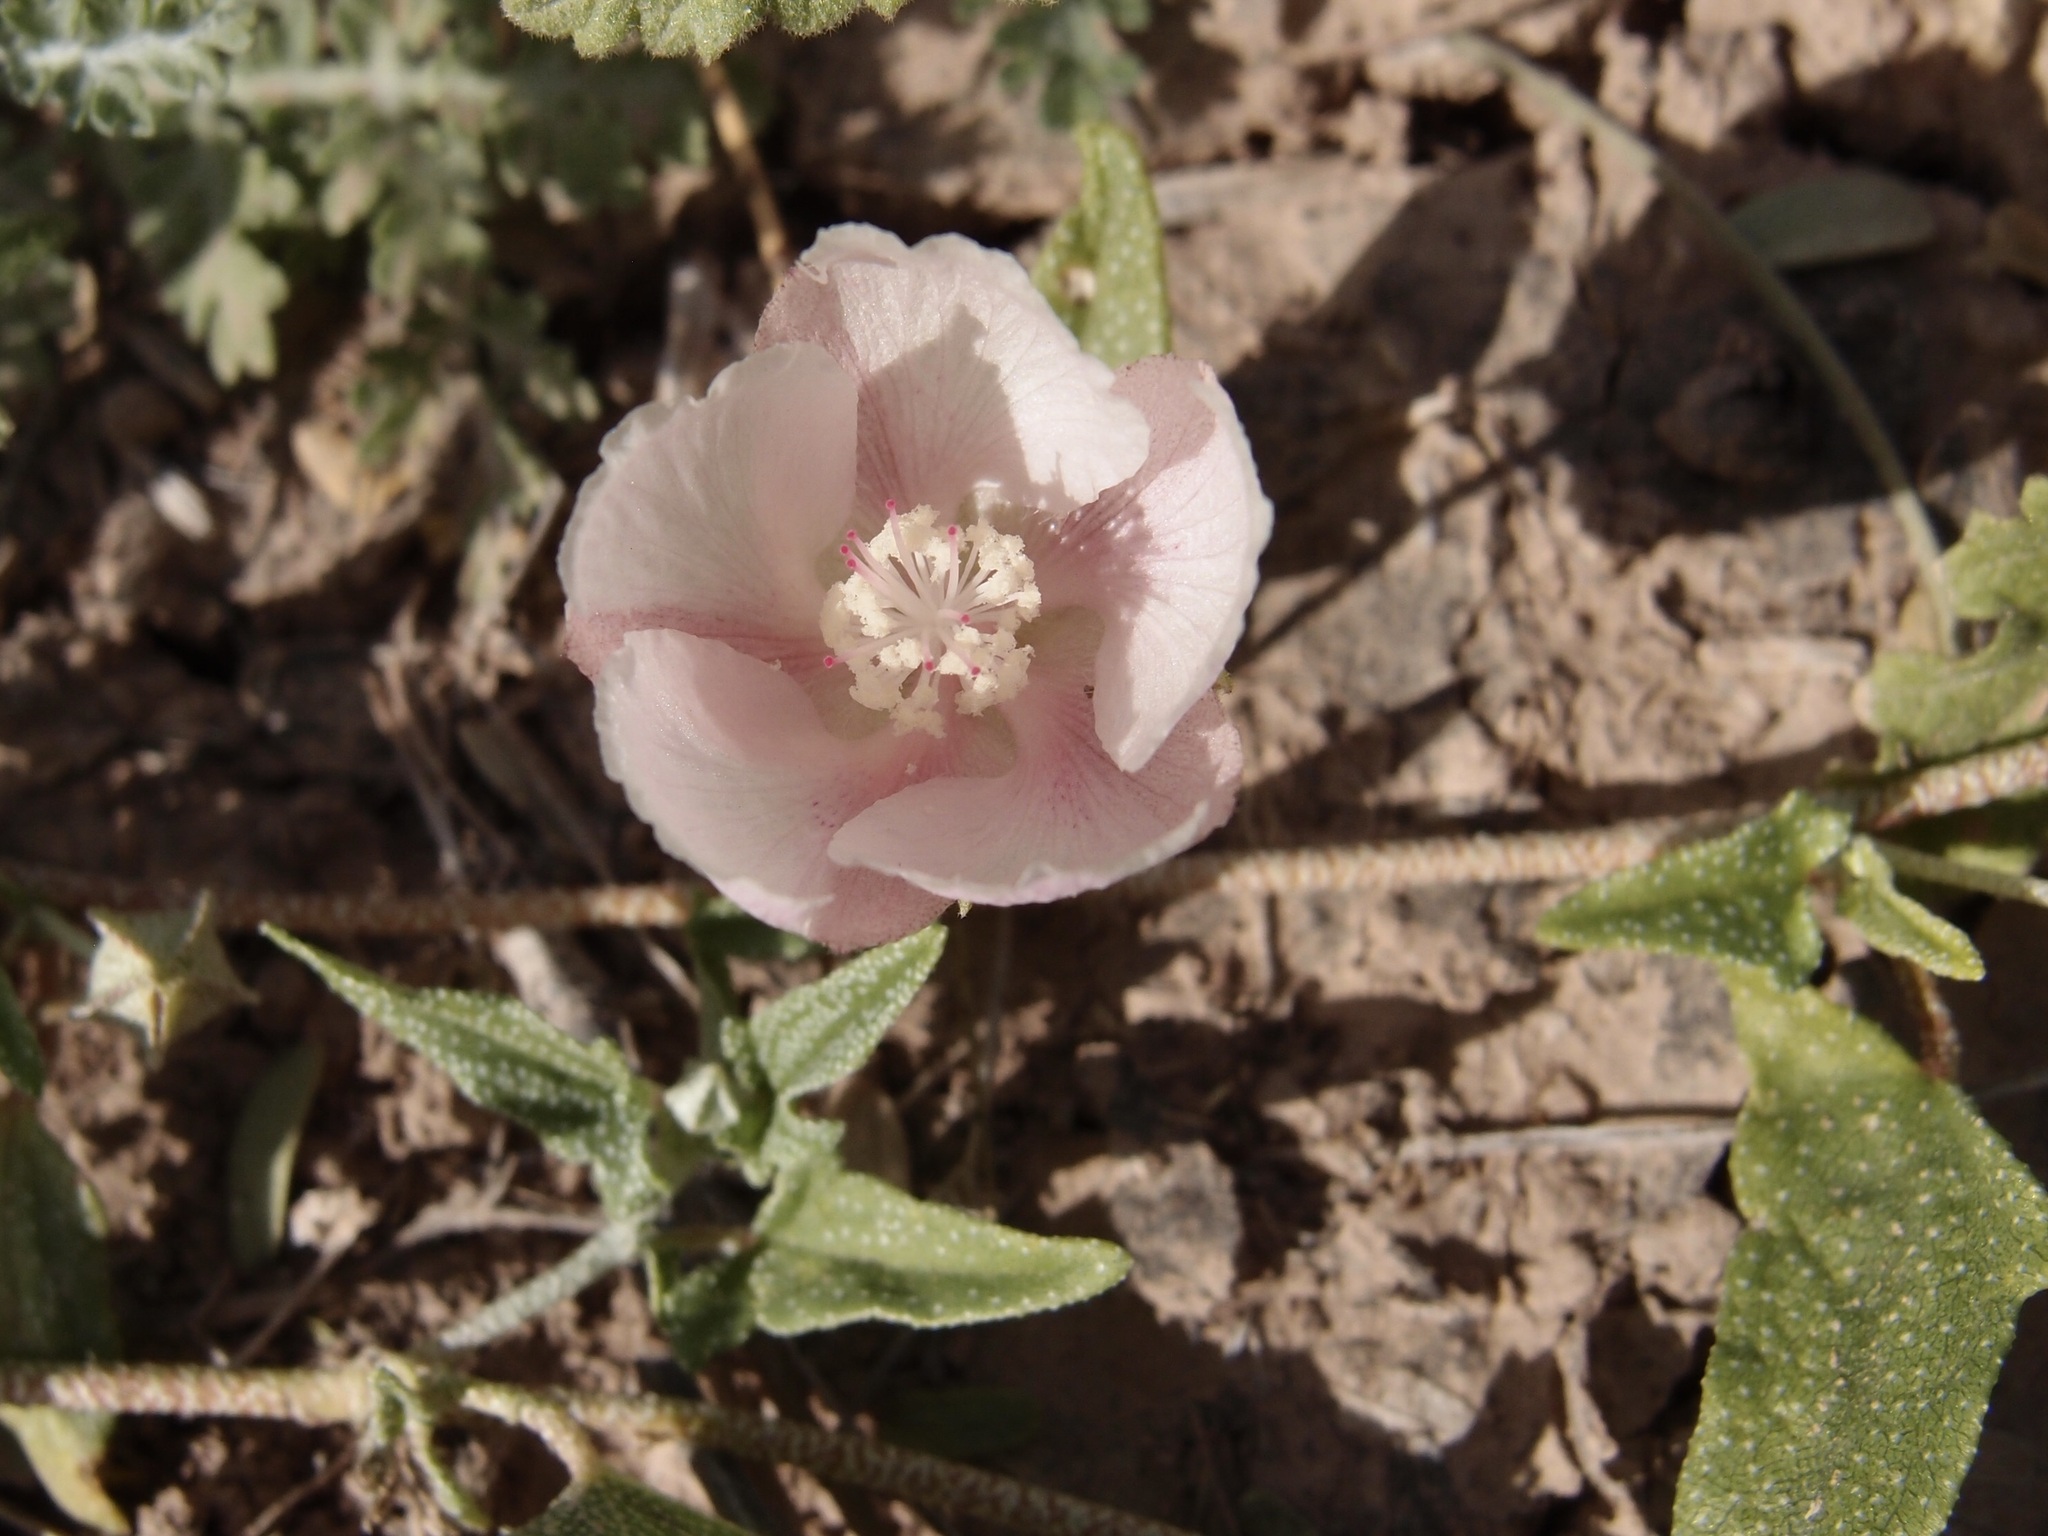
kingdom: Plantae
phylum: Tracheophyta
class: Magnoliopsida
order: Malvales
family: Malvaceae
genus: Malvella
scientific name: Malvella sagittifolia
